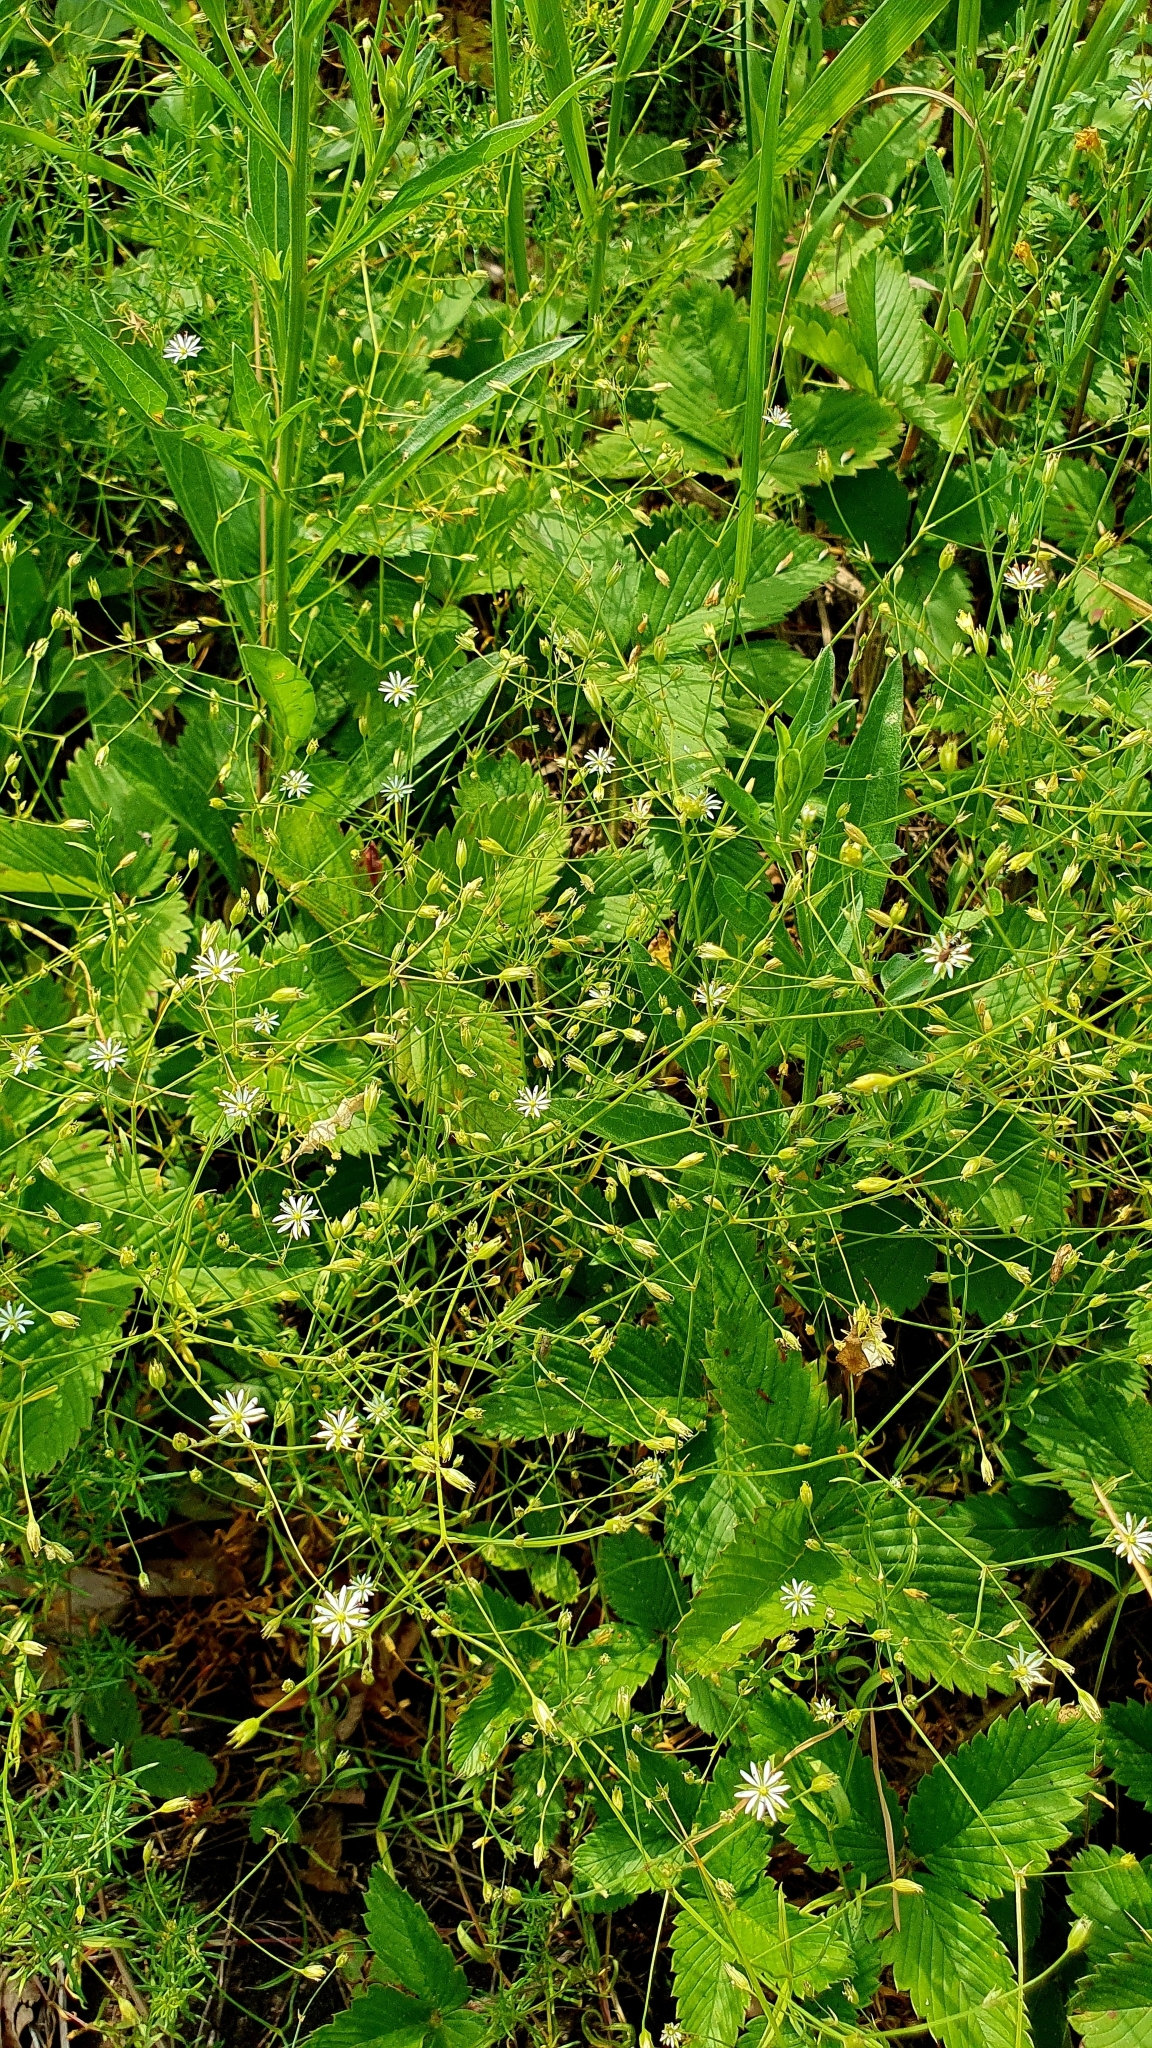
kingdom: Plantae
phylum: Tracheophyta
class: Magnoliopsida
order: Caryophyllales
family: Caryophyllaceae
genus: Stellaria
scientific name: Stellaria graminea
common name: Grass-like starwort
